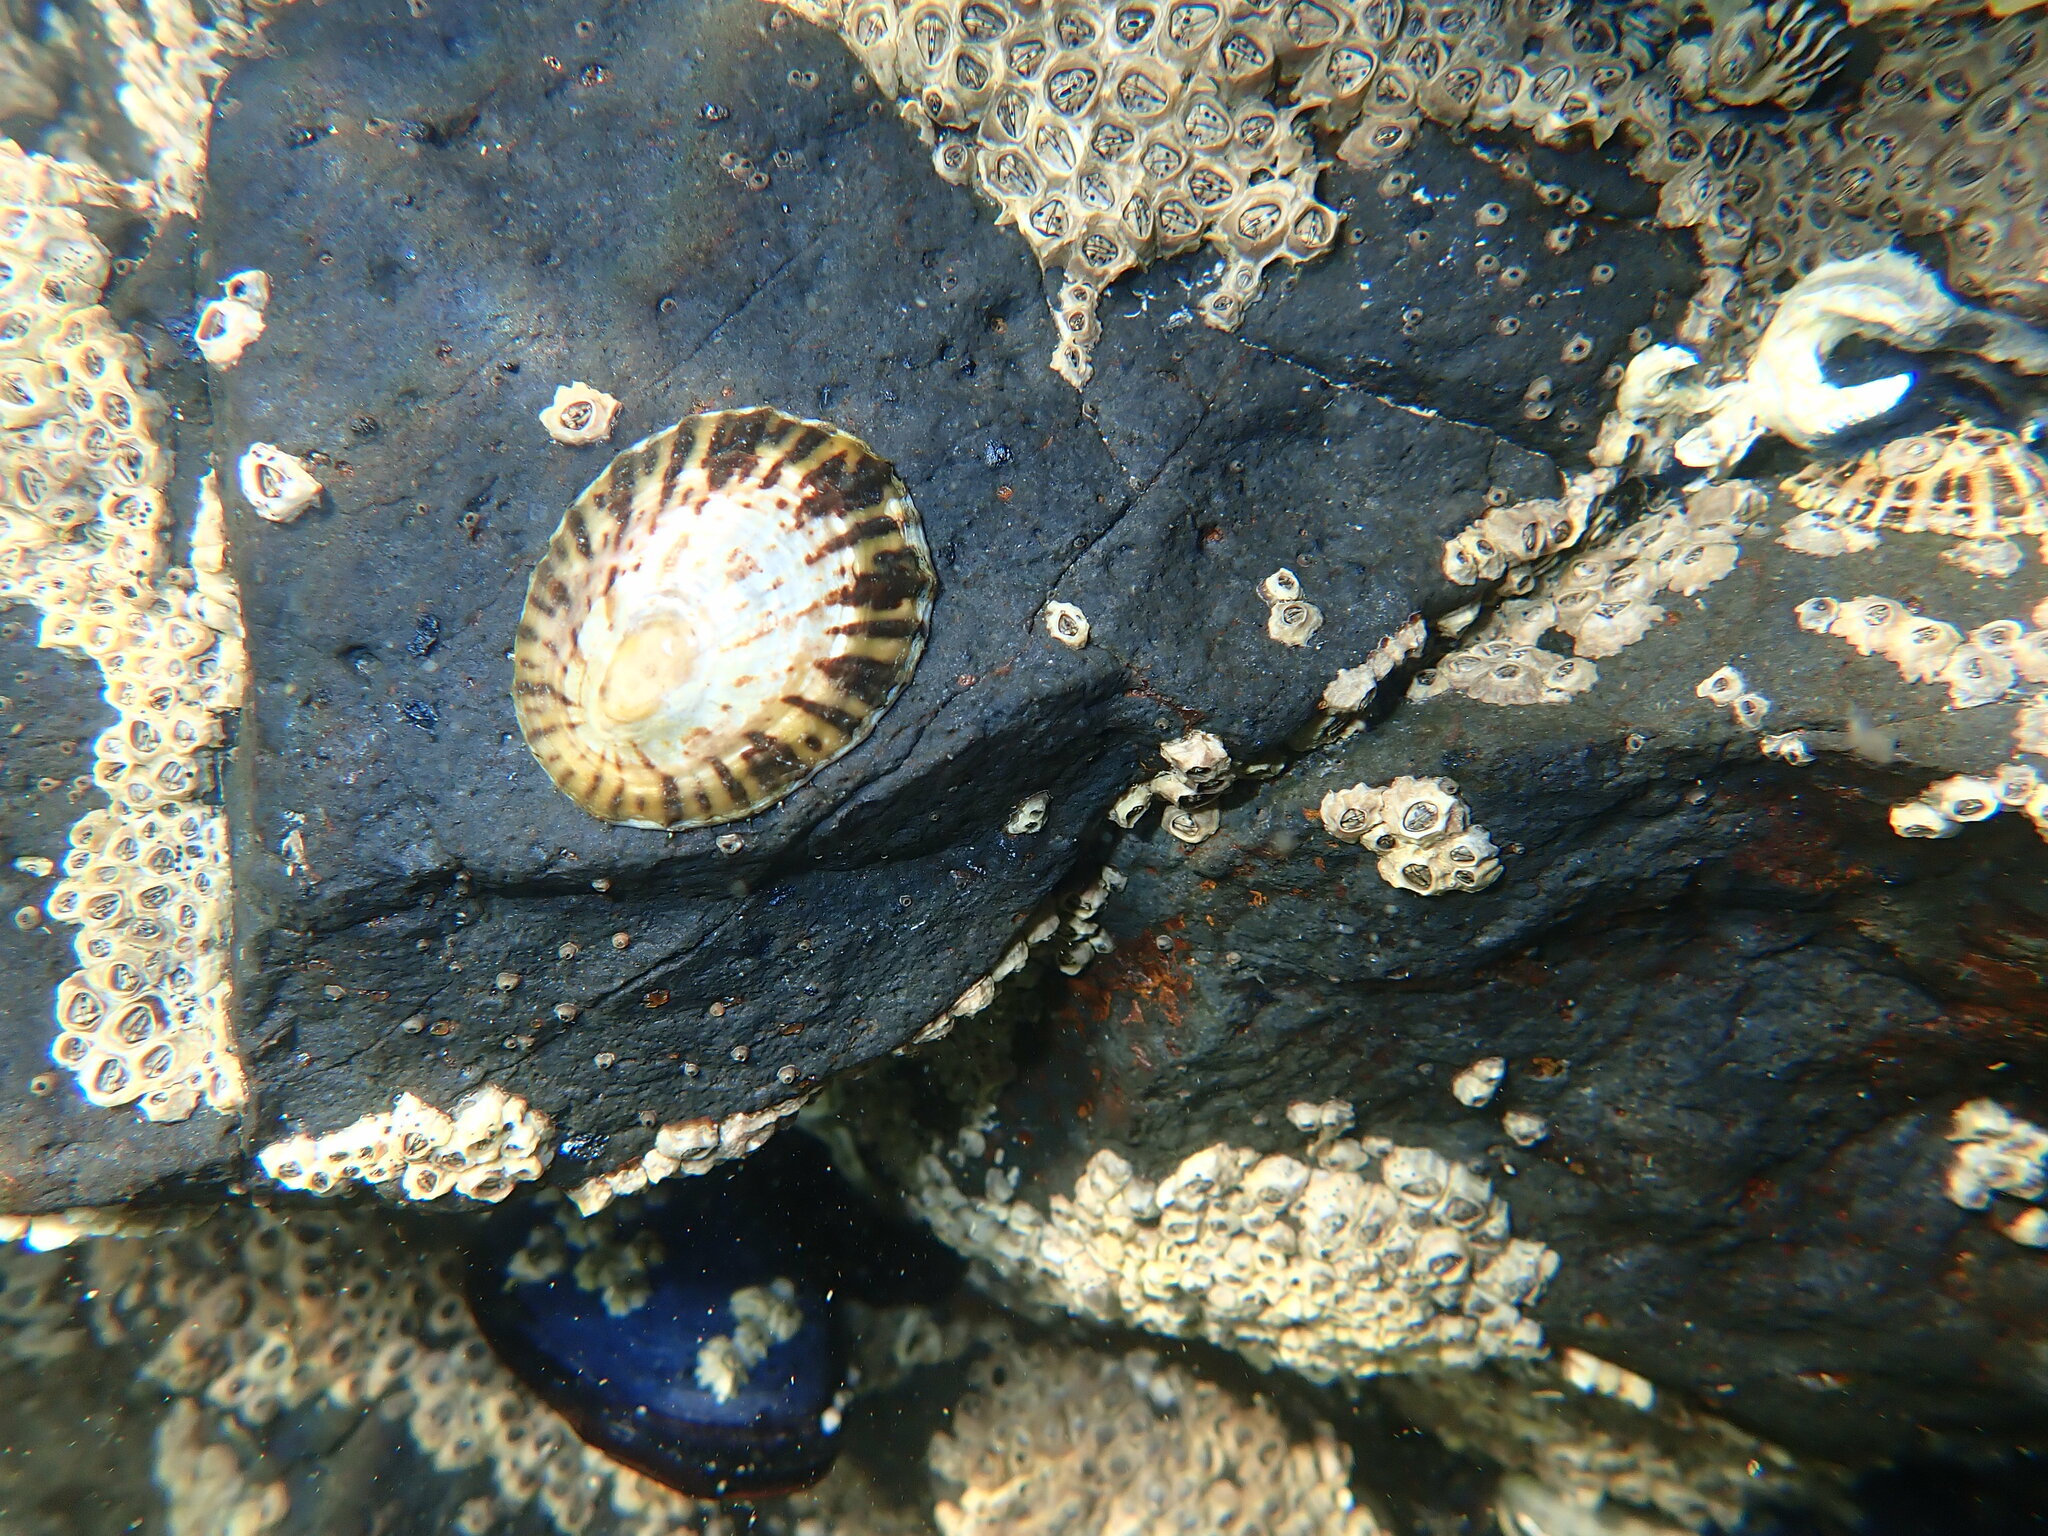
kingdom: Animalia
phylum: Mollusca
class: Gastropoda
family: Nacellidae
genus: Cellana
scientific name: Cellana radians
